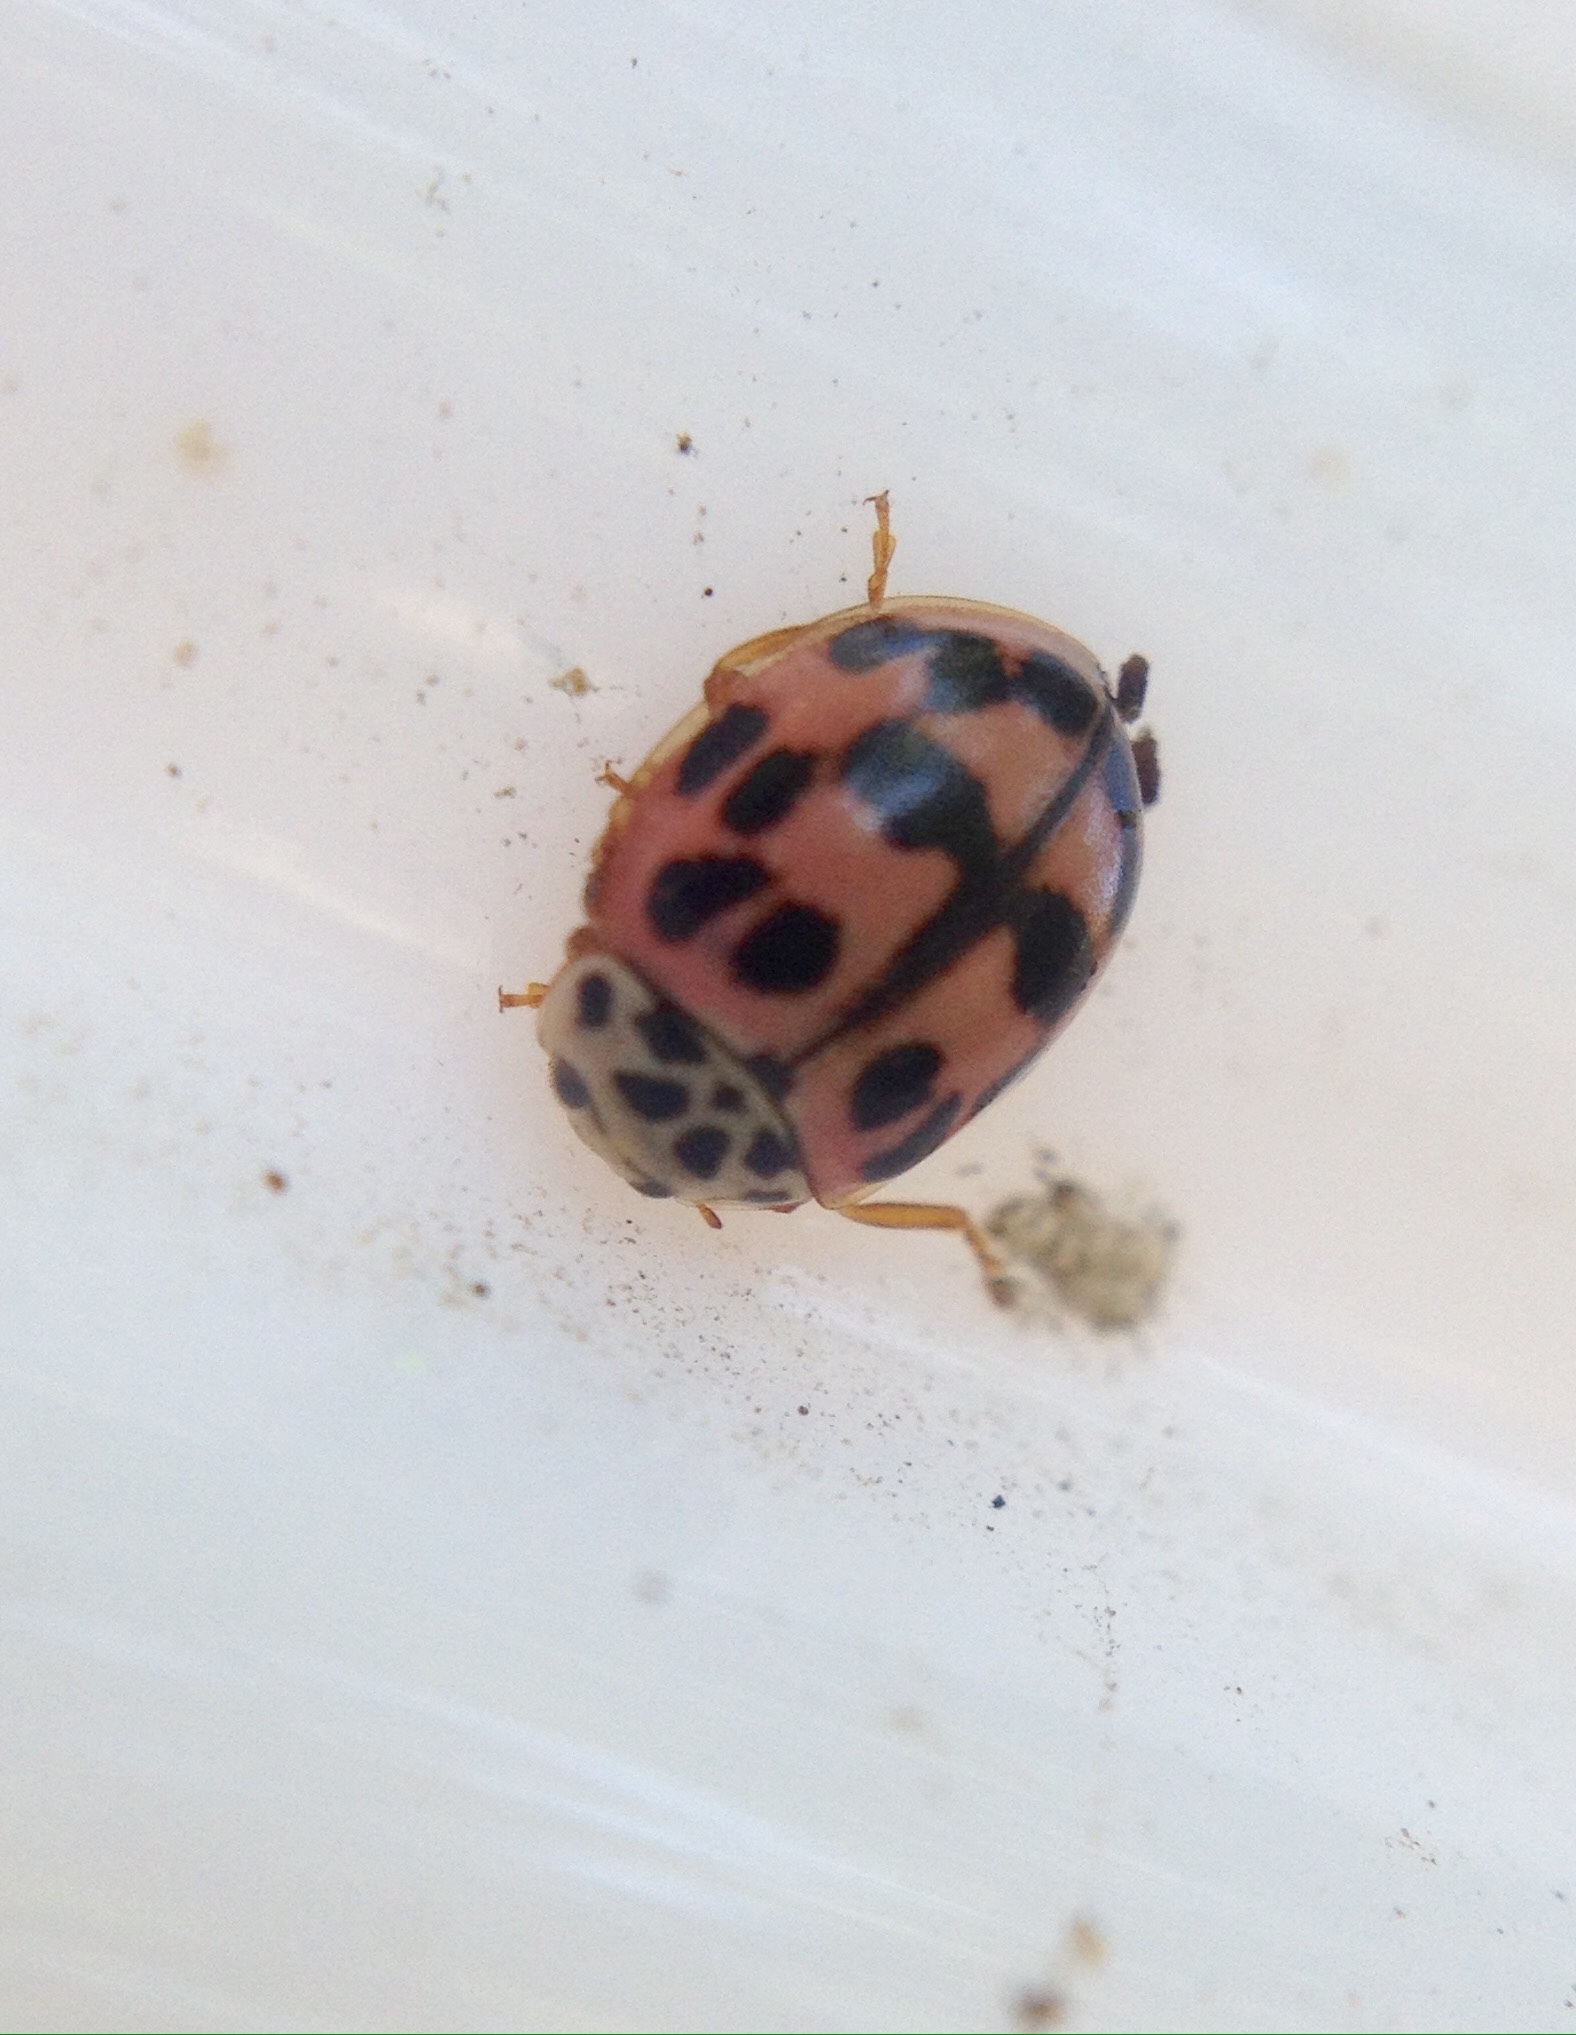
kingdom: Animalia
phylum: Arthropoda
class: Insecta
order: Coleoptera
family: Coccinellidae
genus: Oenopia
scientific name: Oenopia conglobata
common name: Ladybird beetle
